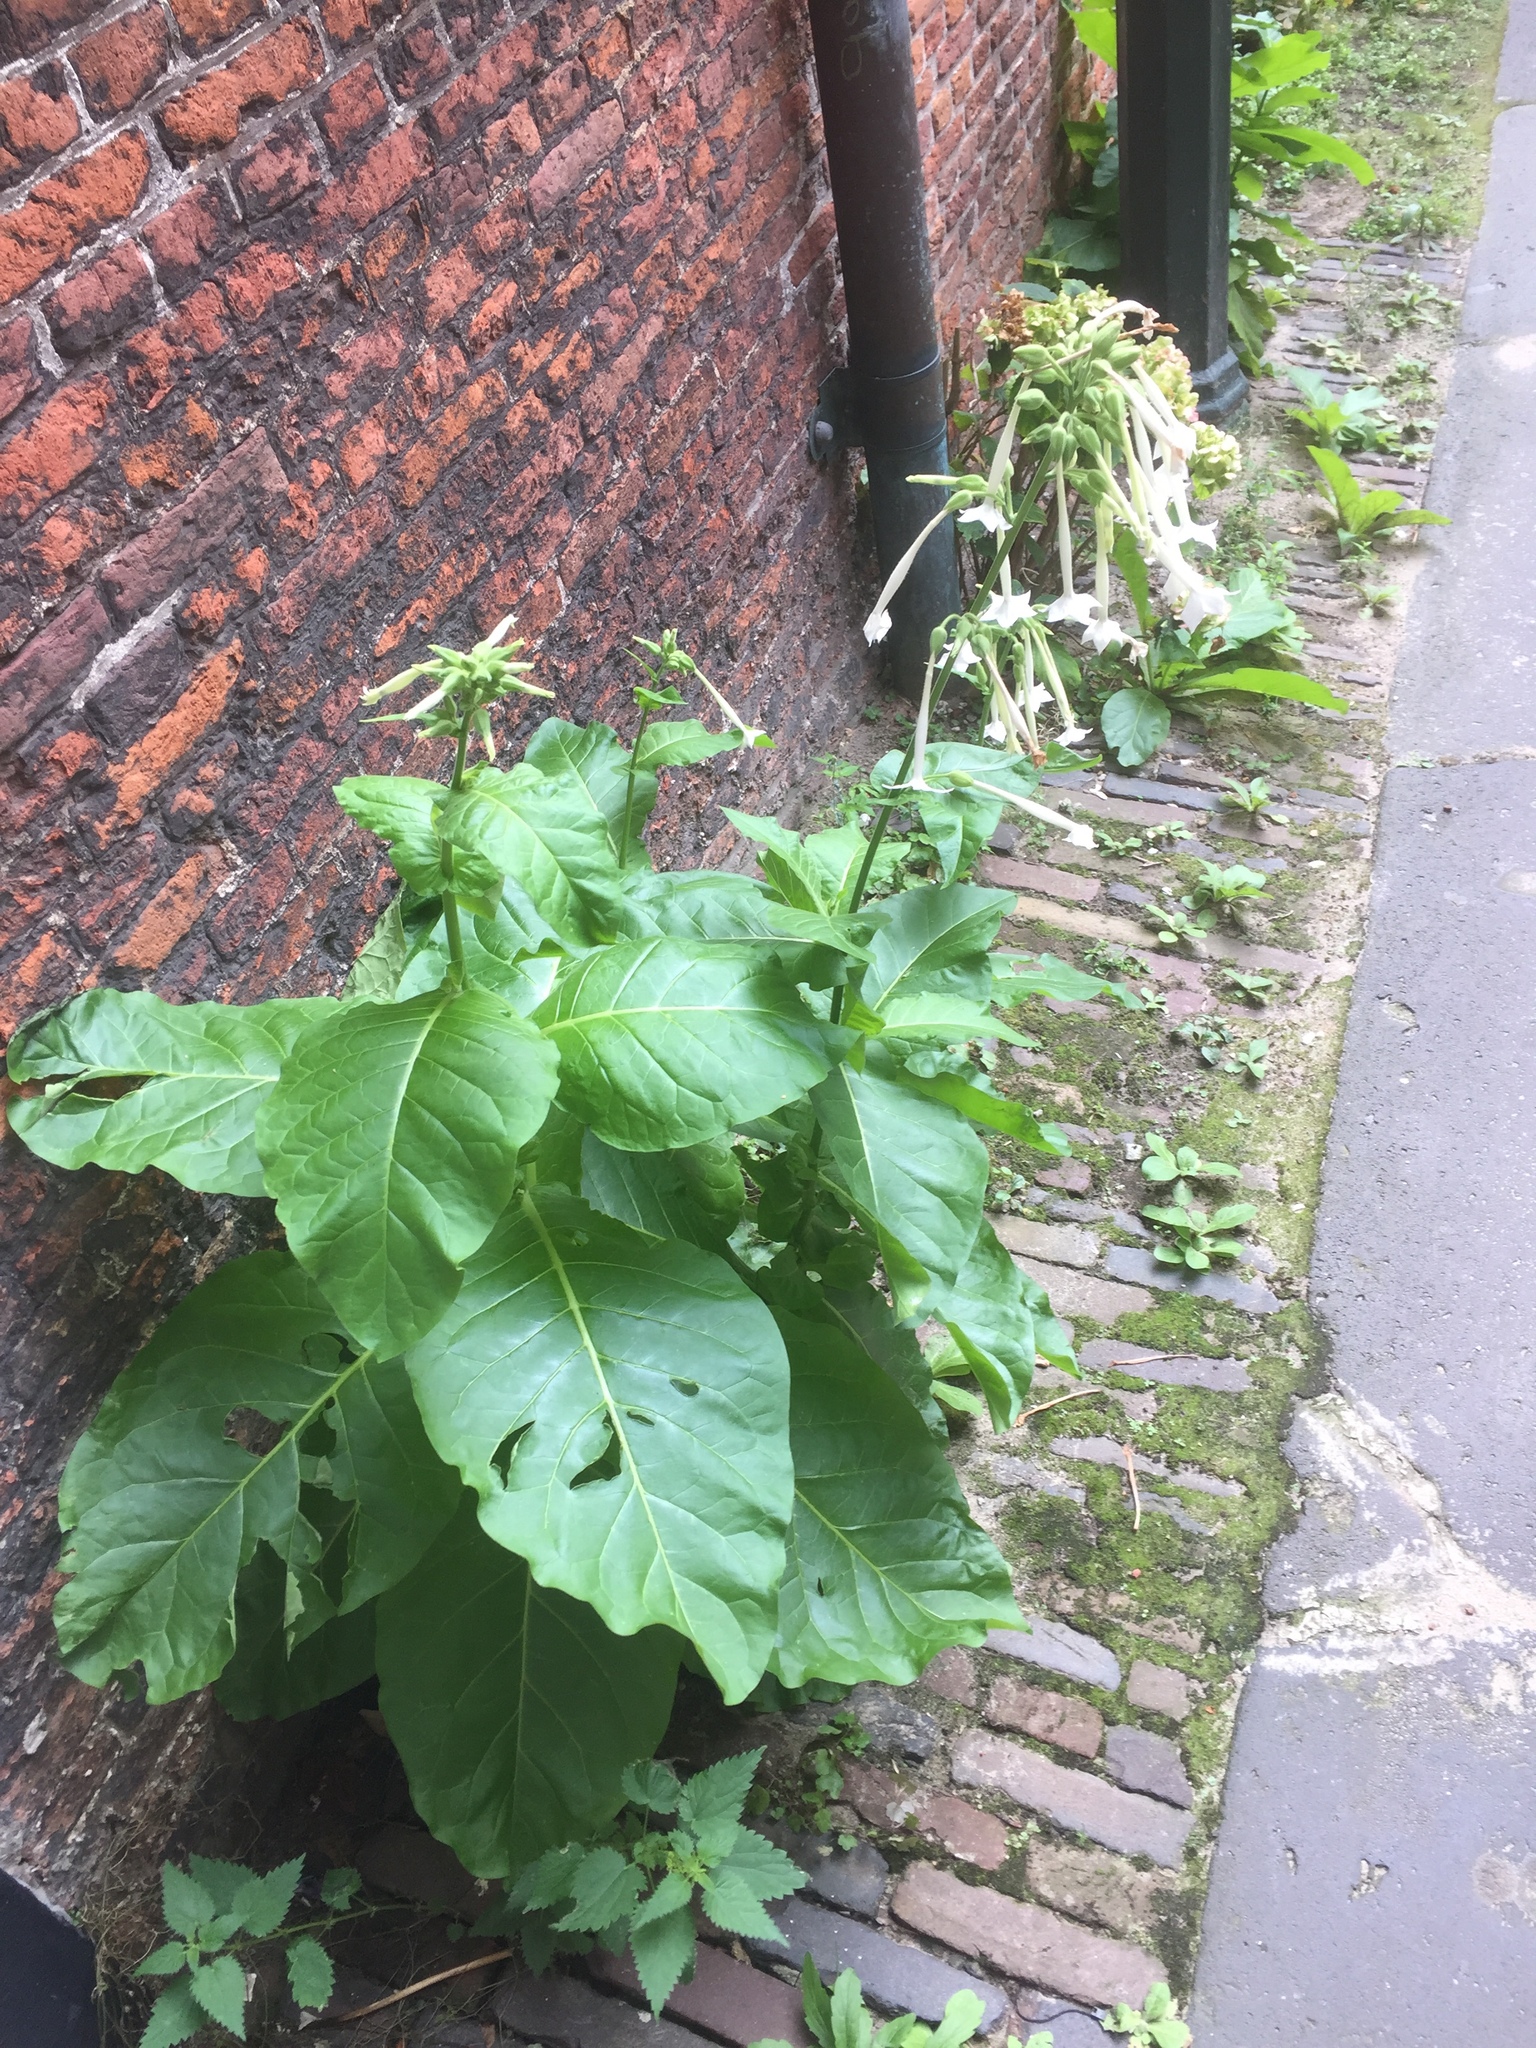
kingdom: Plantae
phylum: Tracheophyta
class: Magnoliopsida
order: Solanales
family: Solanaceae
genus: Nicotiana
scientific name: Nicotiana sylvestris
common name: Flowering tobacco
